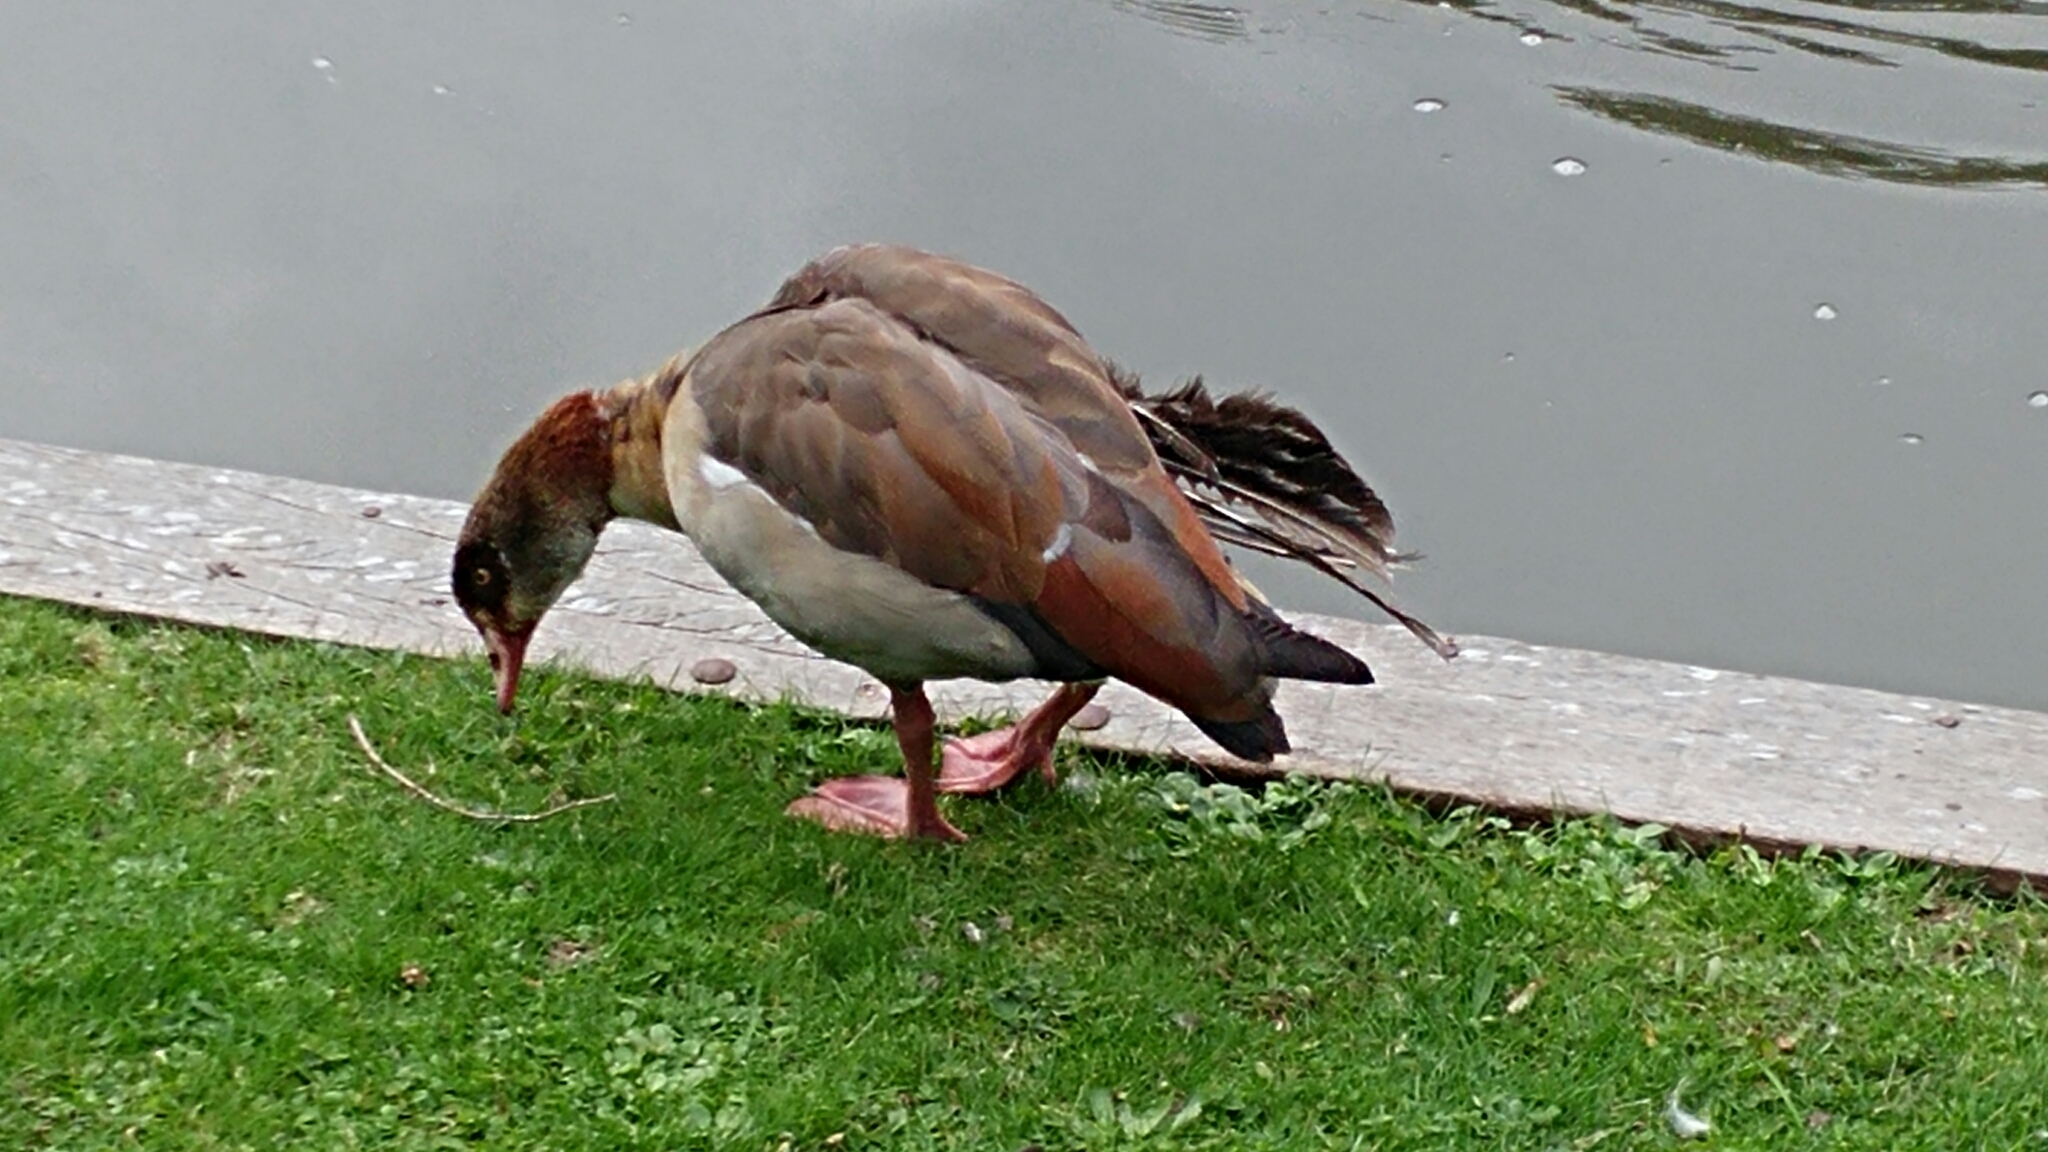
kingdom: Animalia
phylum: Chordata
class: Aves
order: Anseriformes
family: Anatidae
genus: Alopochen
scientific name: Alopochen aegyptiaca
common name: Egyptian goose
